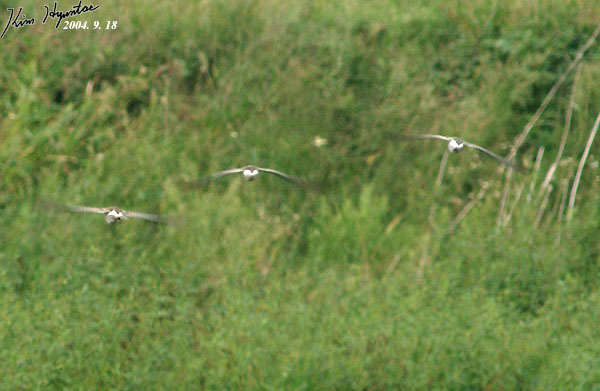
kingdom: Animalia
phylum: Chordata
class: Aves
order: Charadriiformes
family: Scolopacidae
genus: Calidris
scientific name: Calidris pugnax
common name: Ruff
